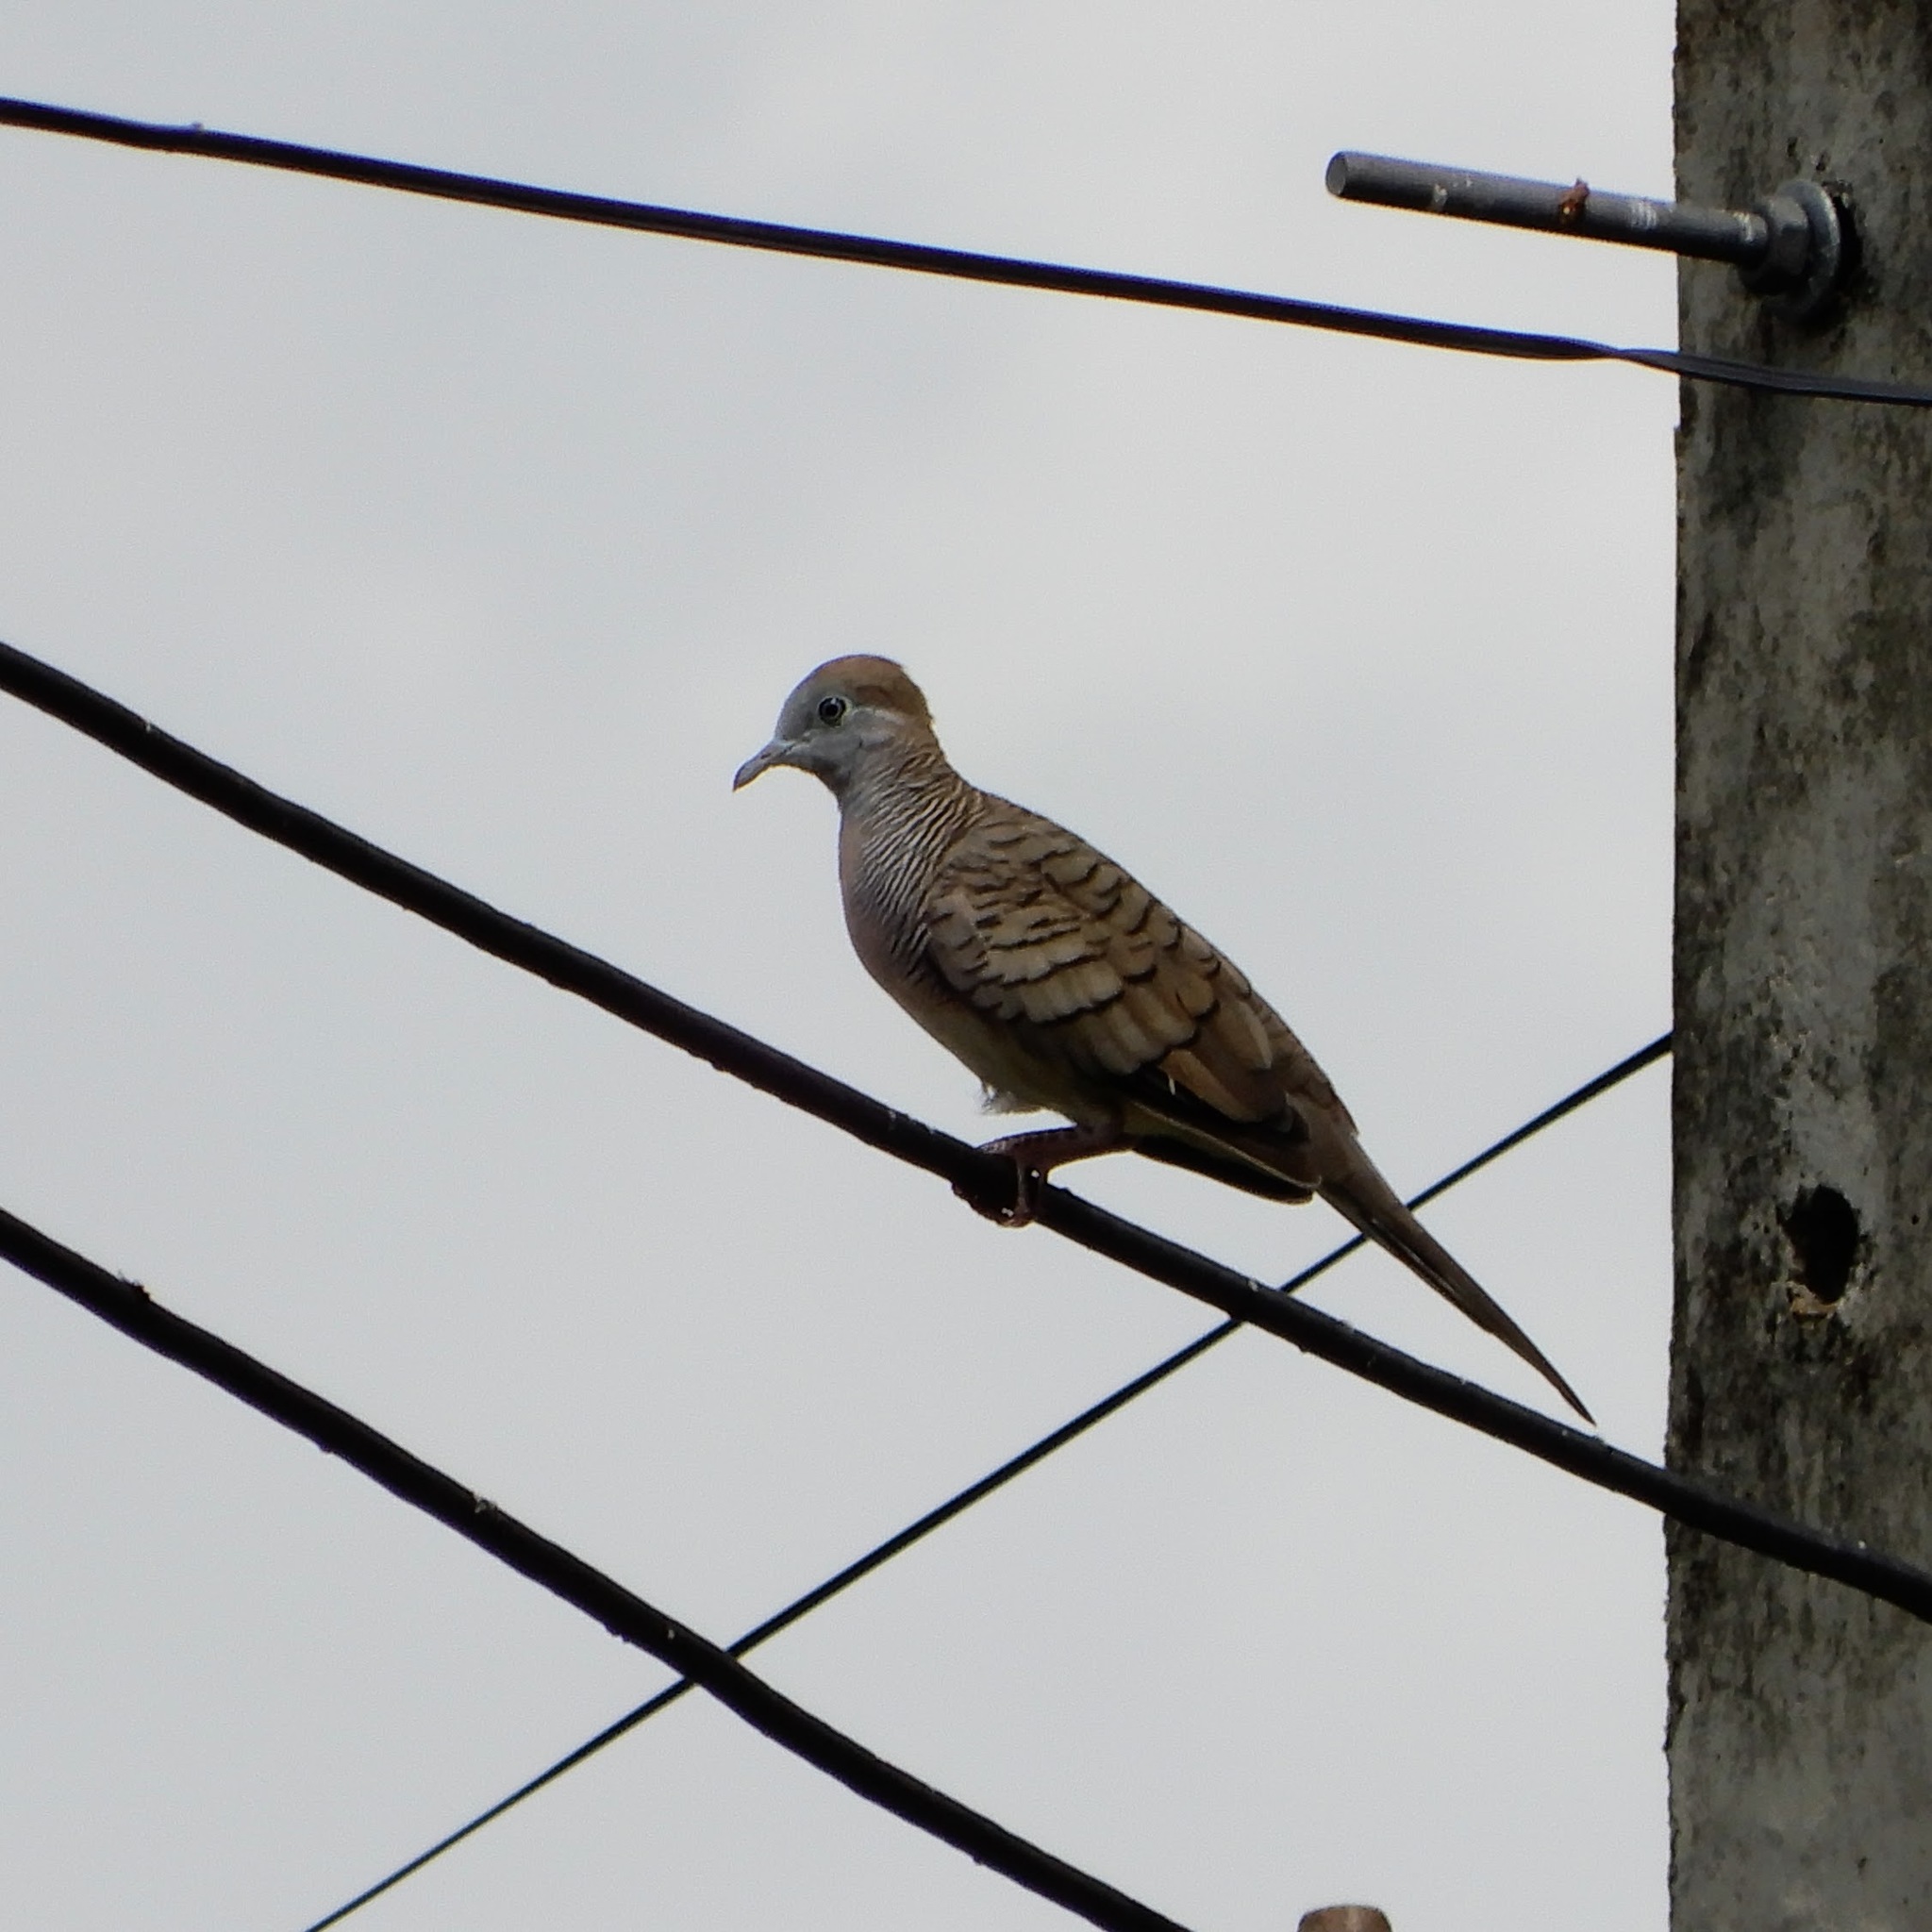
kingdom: Animalia
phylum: Chordata
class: Aves
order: Columbiformes
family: Columbidae
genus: Geopelia
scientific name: Geopelia striata
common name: Zebra dove
